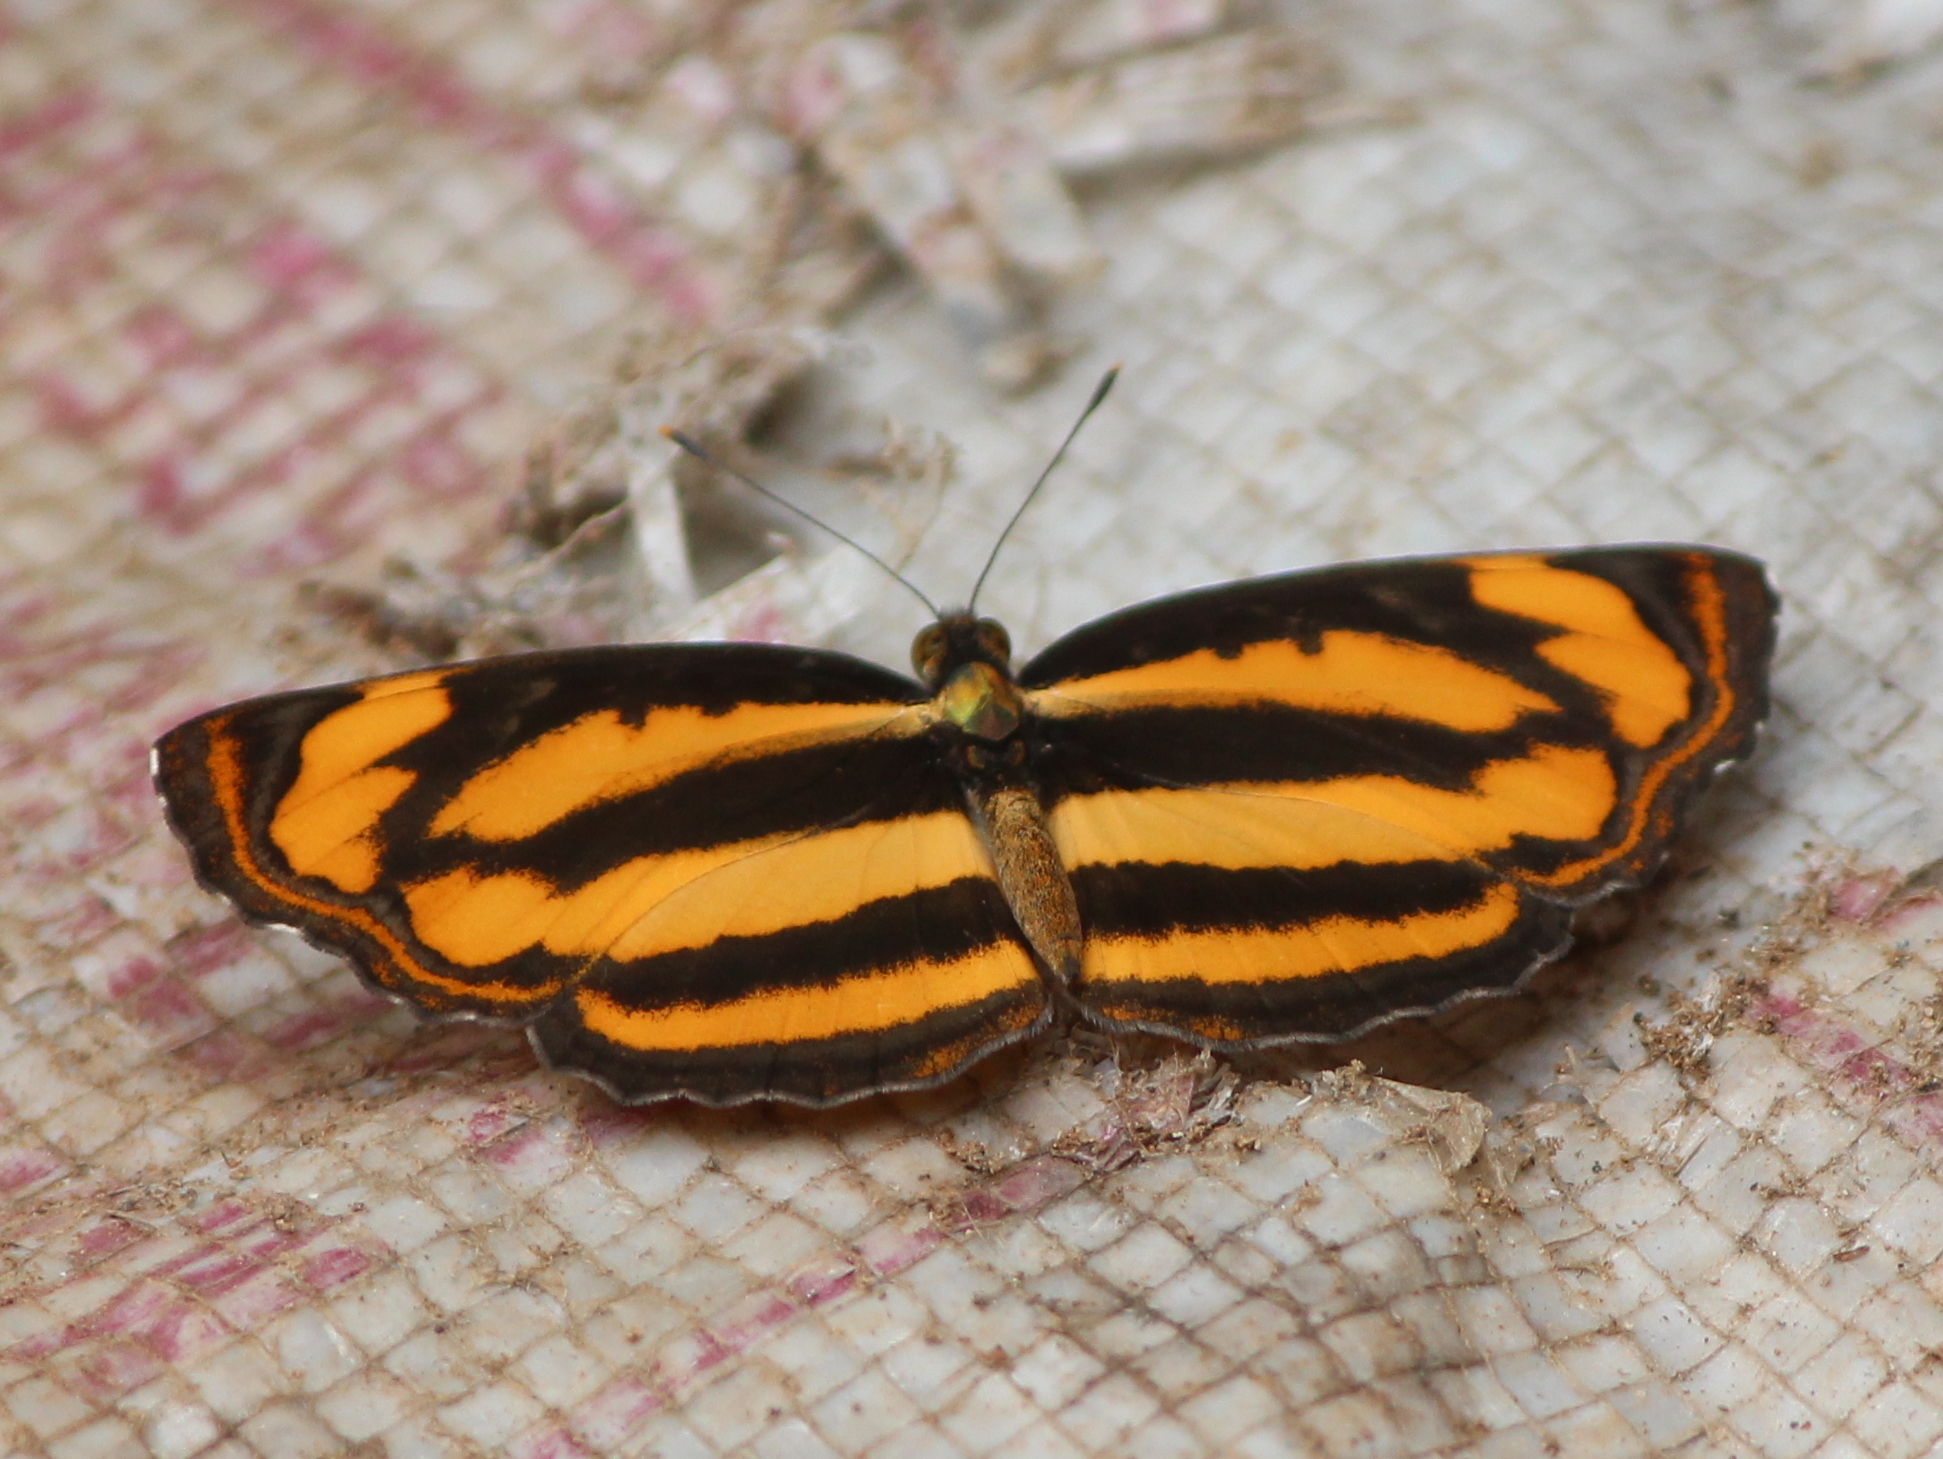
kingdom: Animalia
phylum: Arthropoda
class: Insecta
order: Lepidoptera
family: Nymphalidae
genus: Pantoporia
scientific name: Pantoporia hordonia
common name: Common lascar
